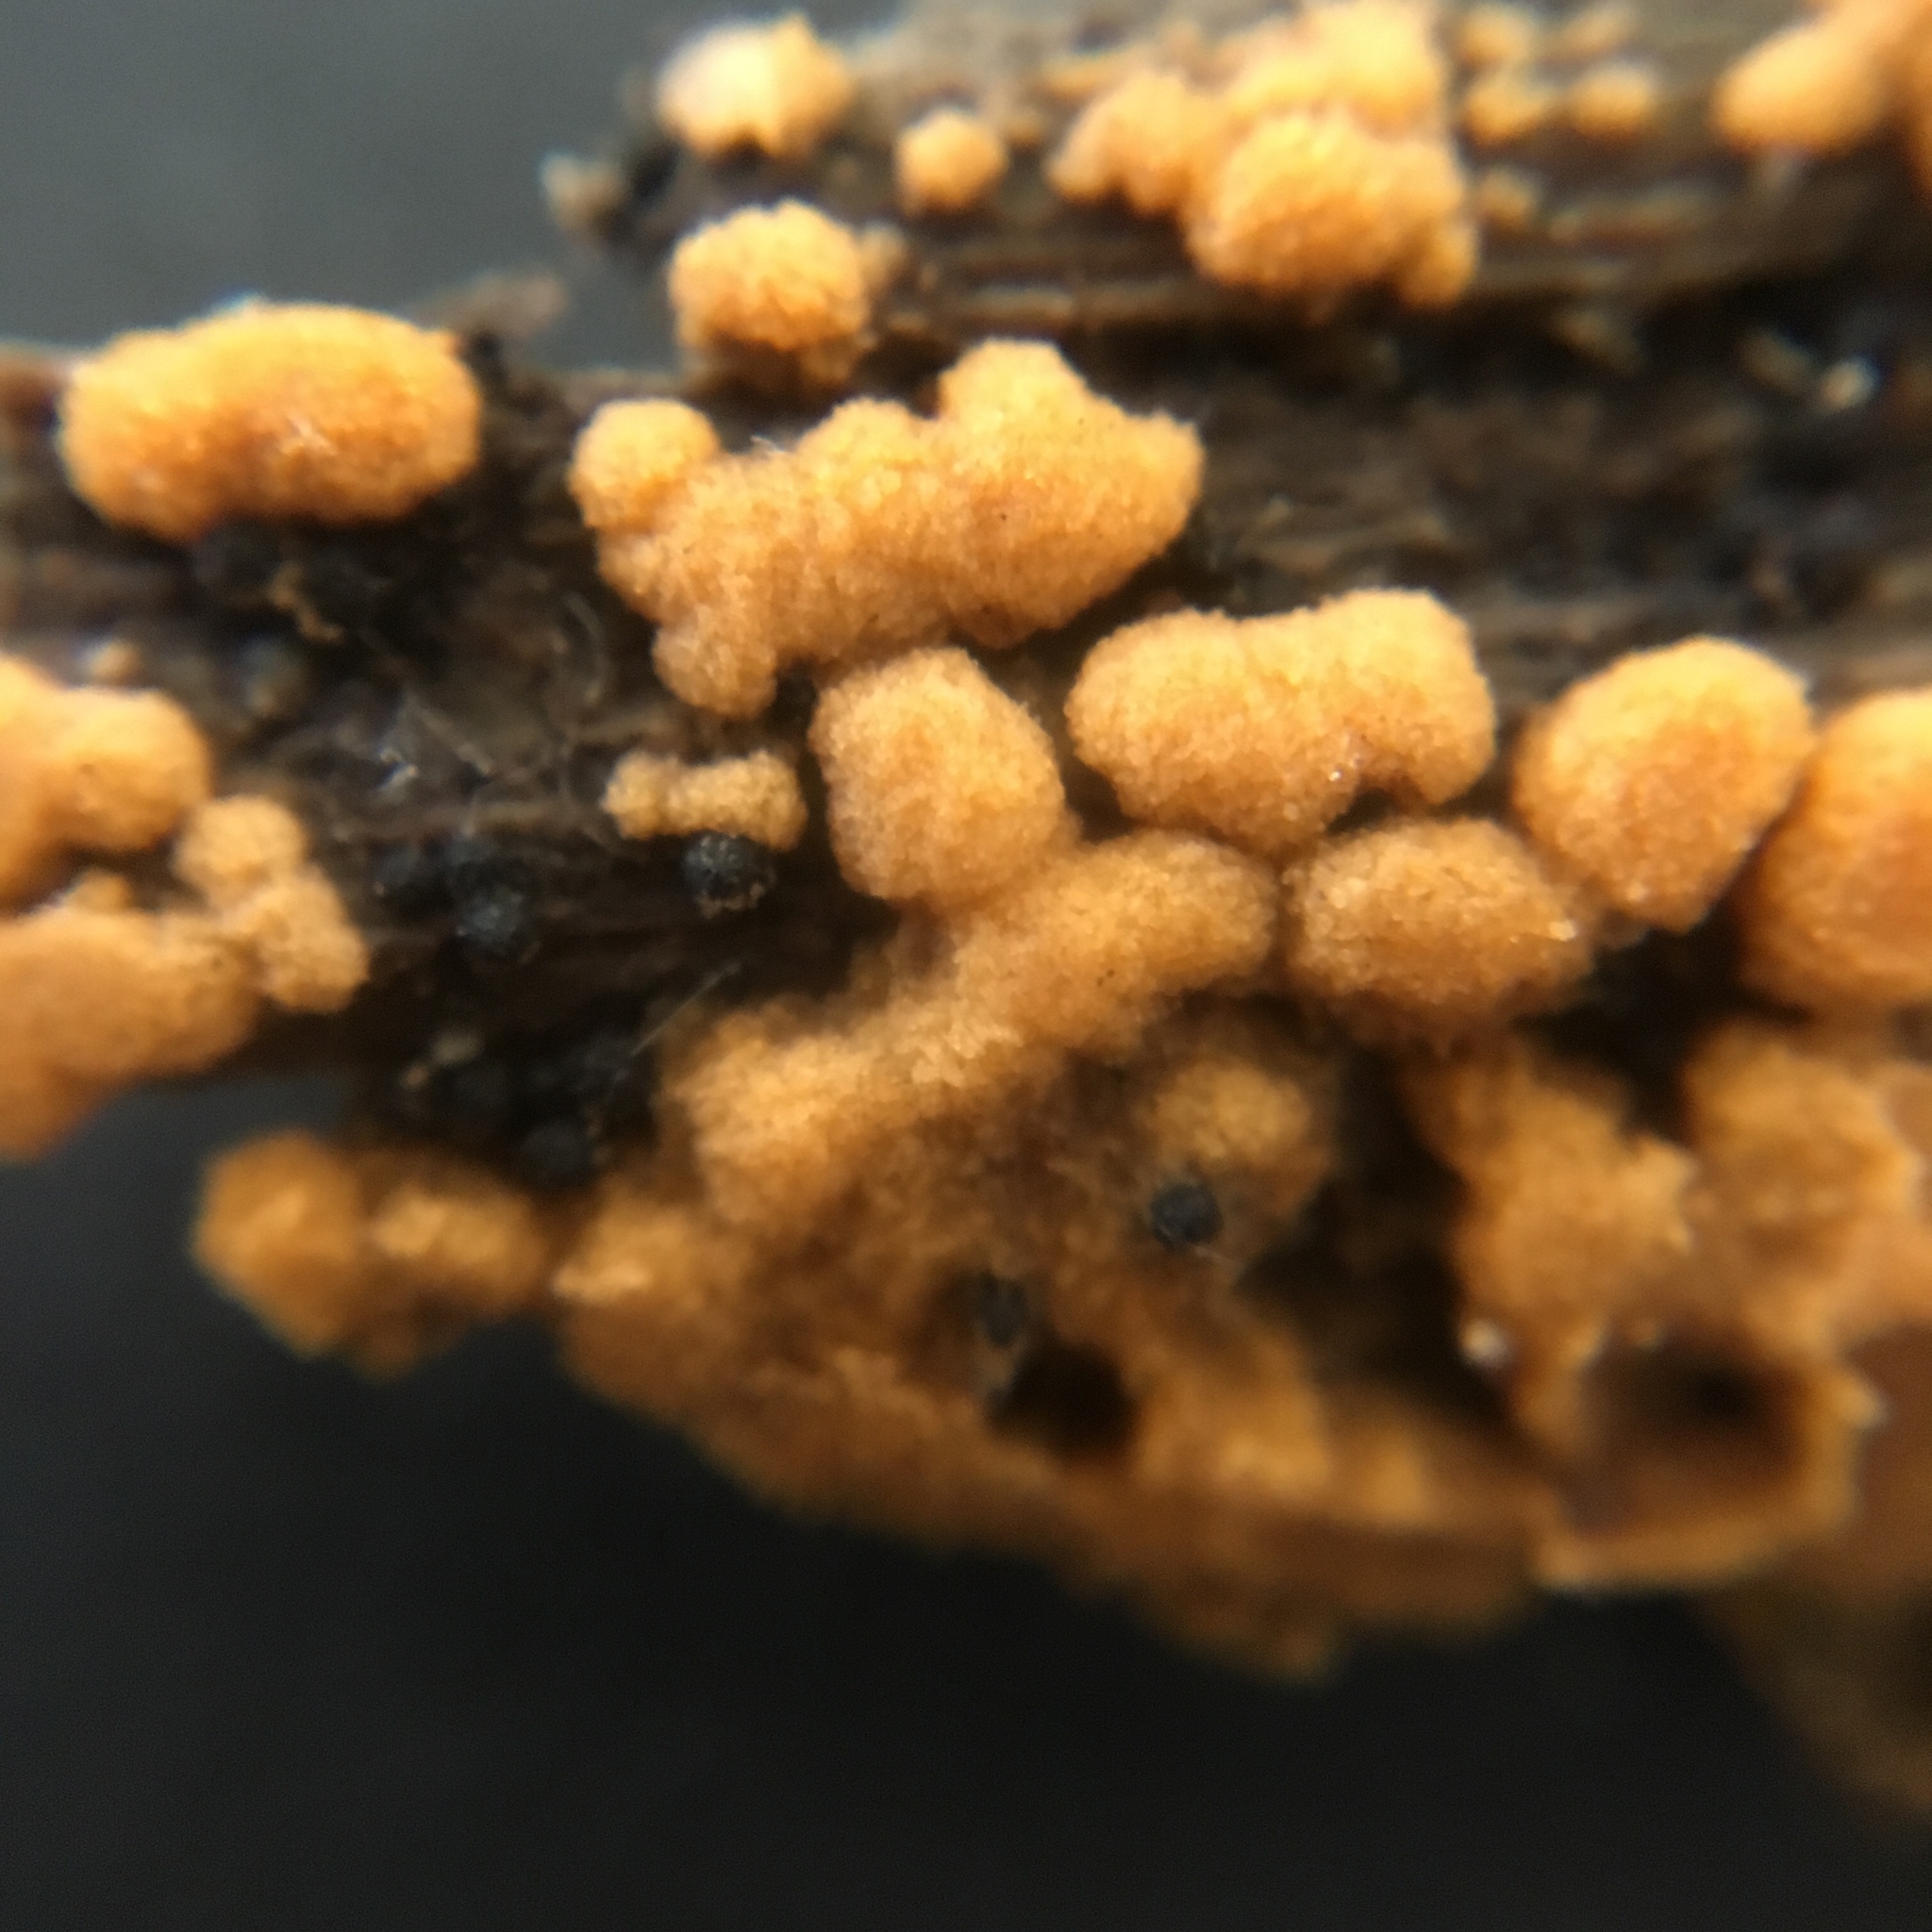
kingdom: Fungi
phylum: Ascomycota
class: Pezizomycetes
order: Pezizales
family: Pyronemataceae
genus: Sphaerosporium
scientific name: Sphaerosporium lignatile
